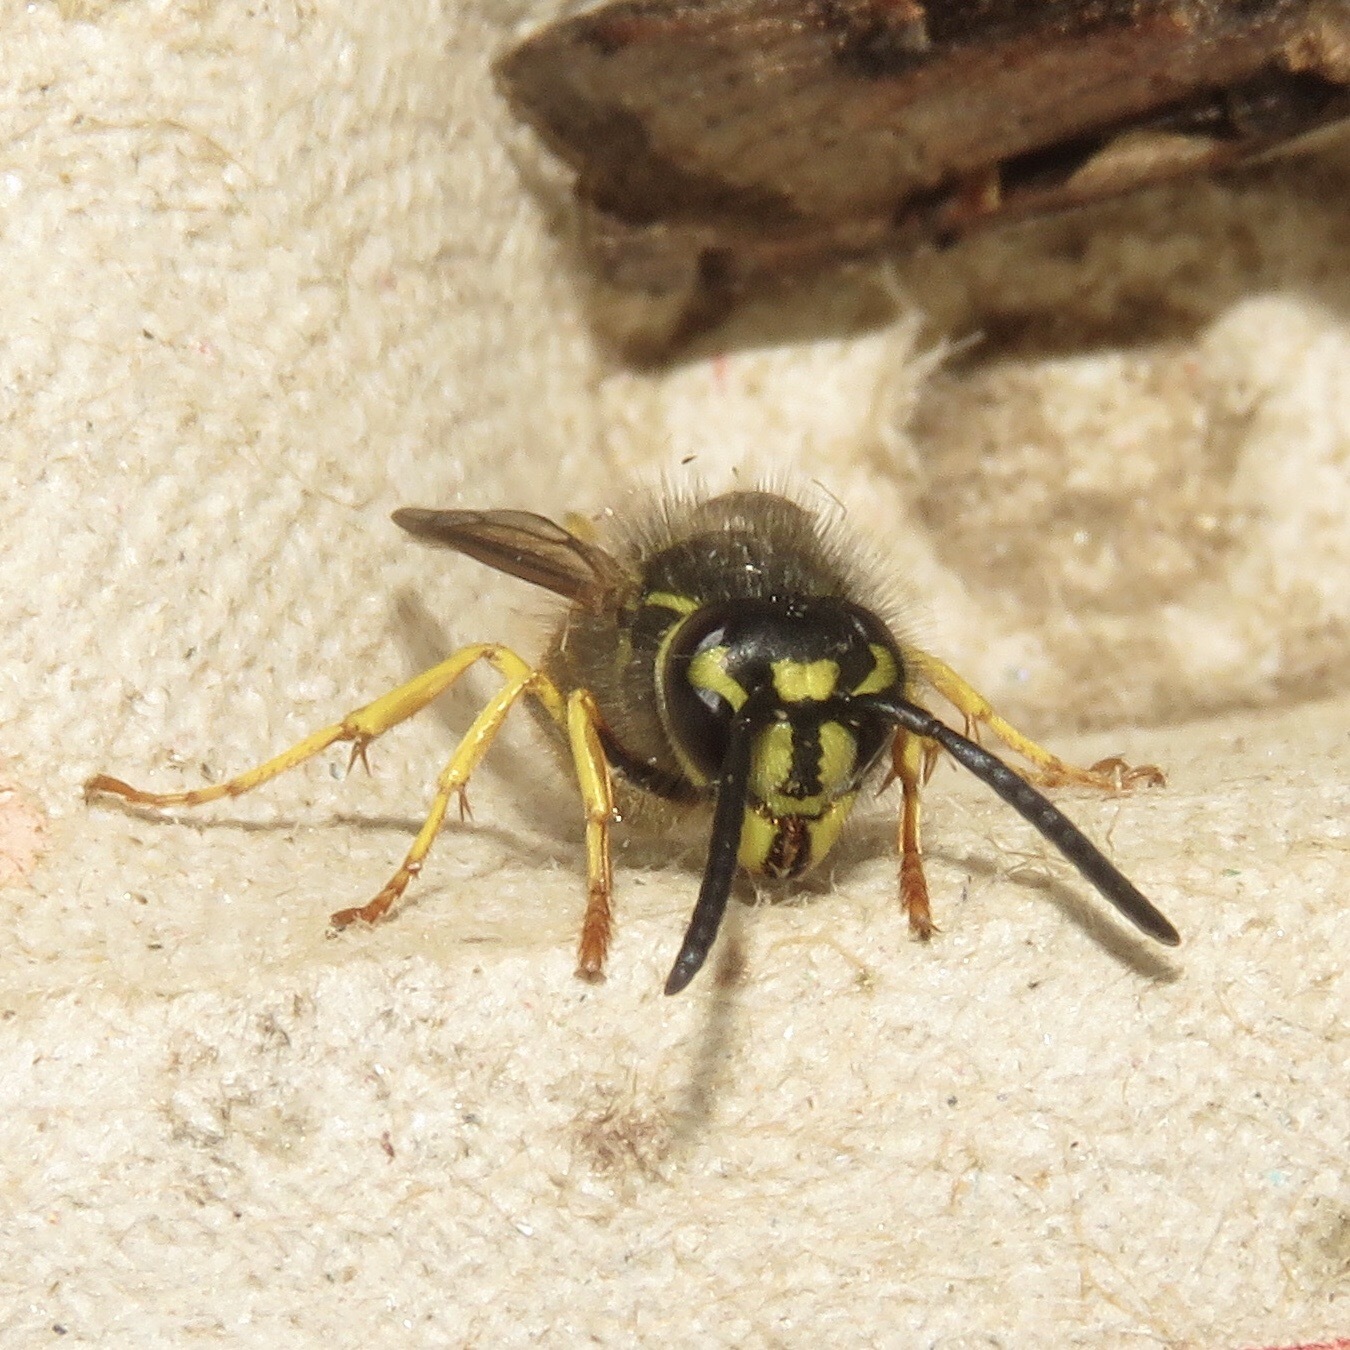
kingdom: Animalia
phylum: Arthropoda
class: Insecta
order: Hymenoptera
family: Vespidae
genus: Vespula
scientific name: Vespula alascensis
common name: Alaska yellowjacket
